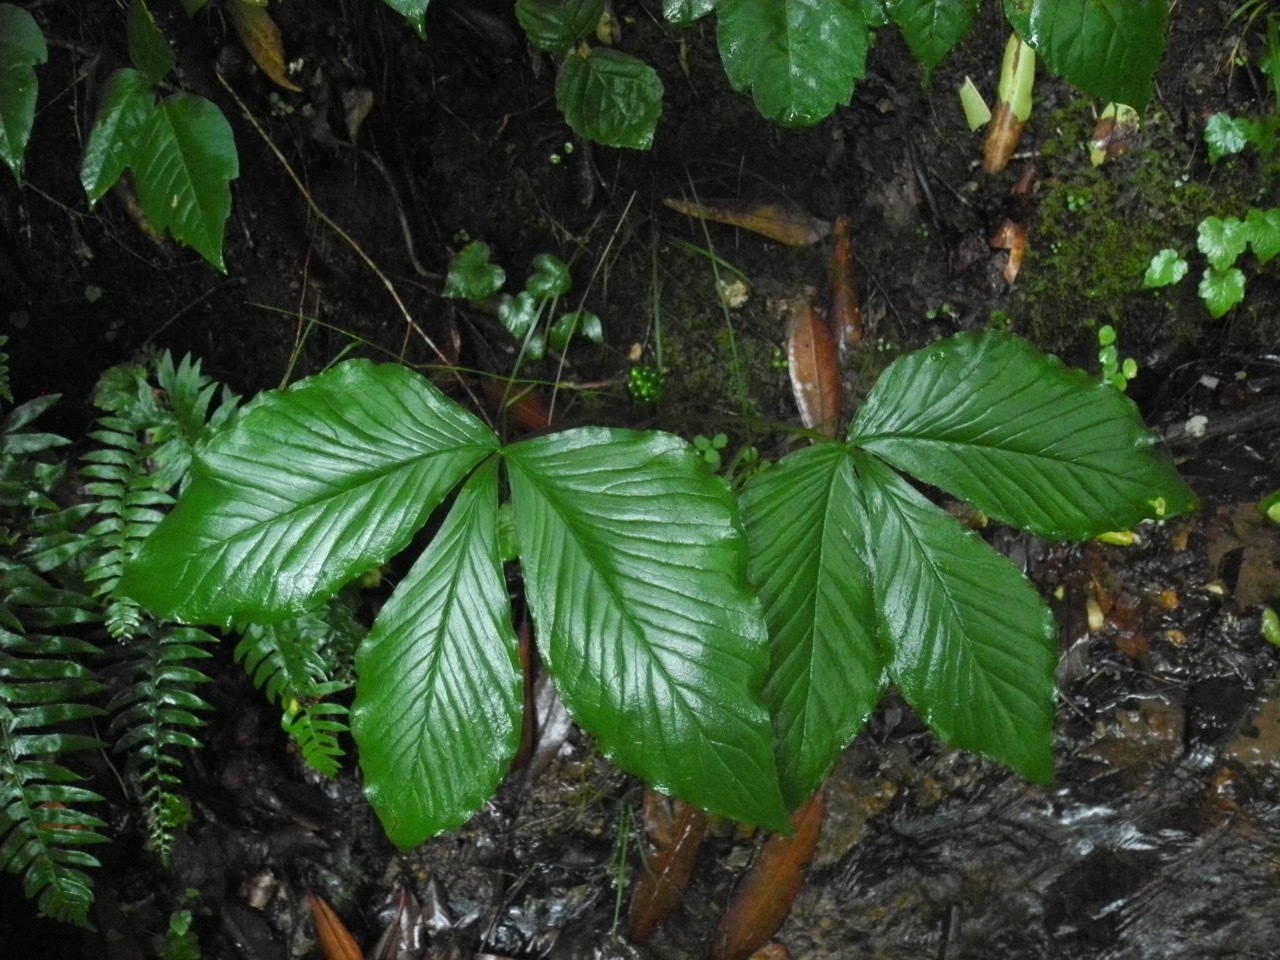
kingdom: Plantae
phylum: Tracheophyta
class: Liliopsida
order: Alismatales
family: Araceae
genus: Arisaema
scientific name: Arisaema triphyllum
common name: Jack-in-the-pulpit
